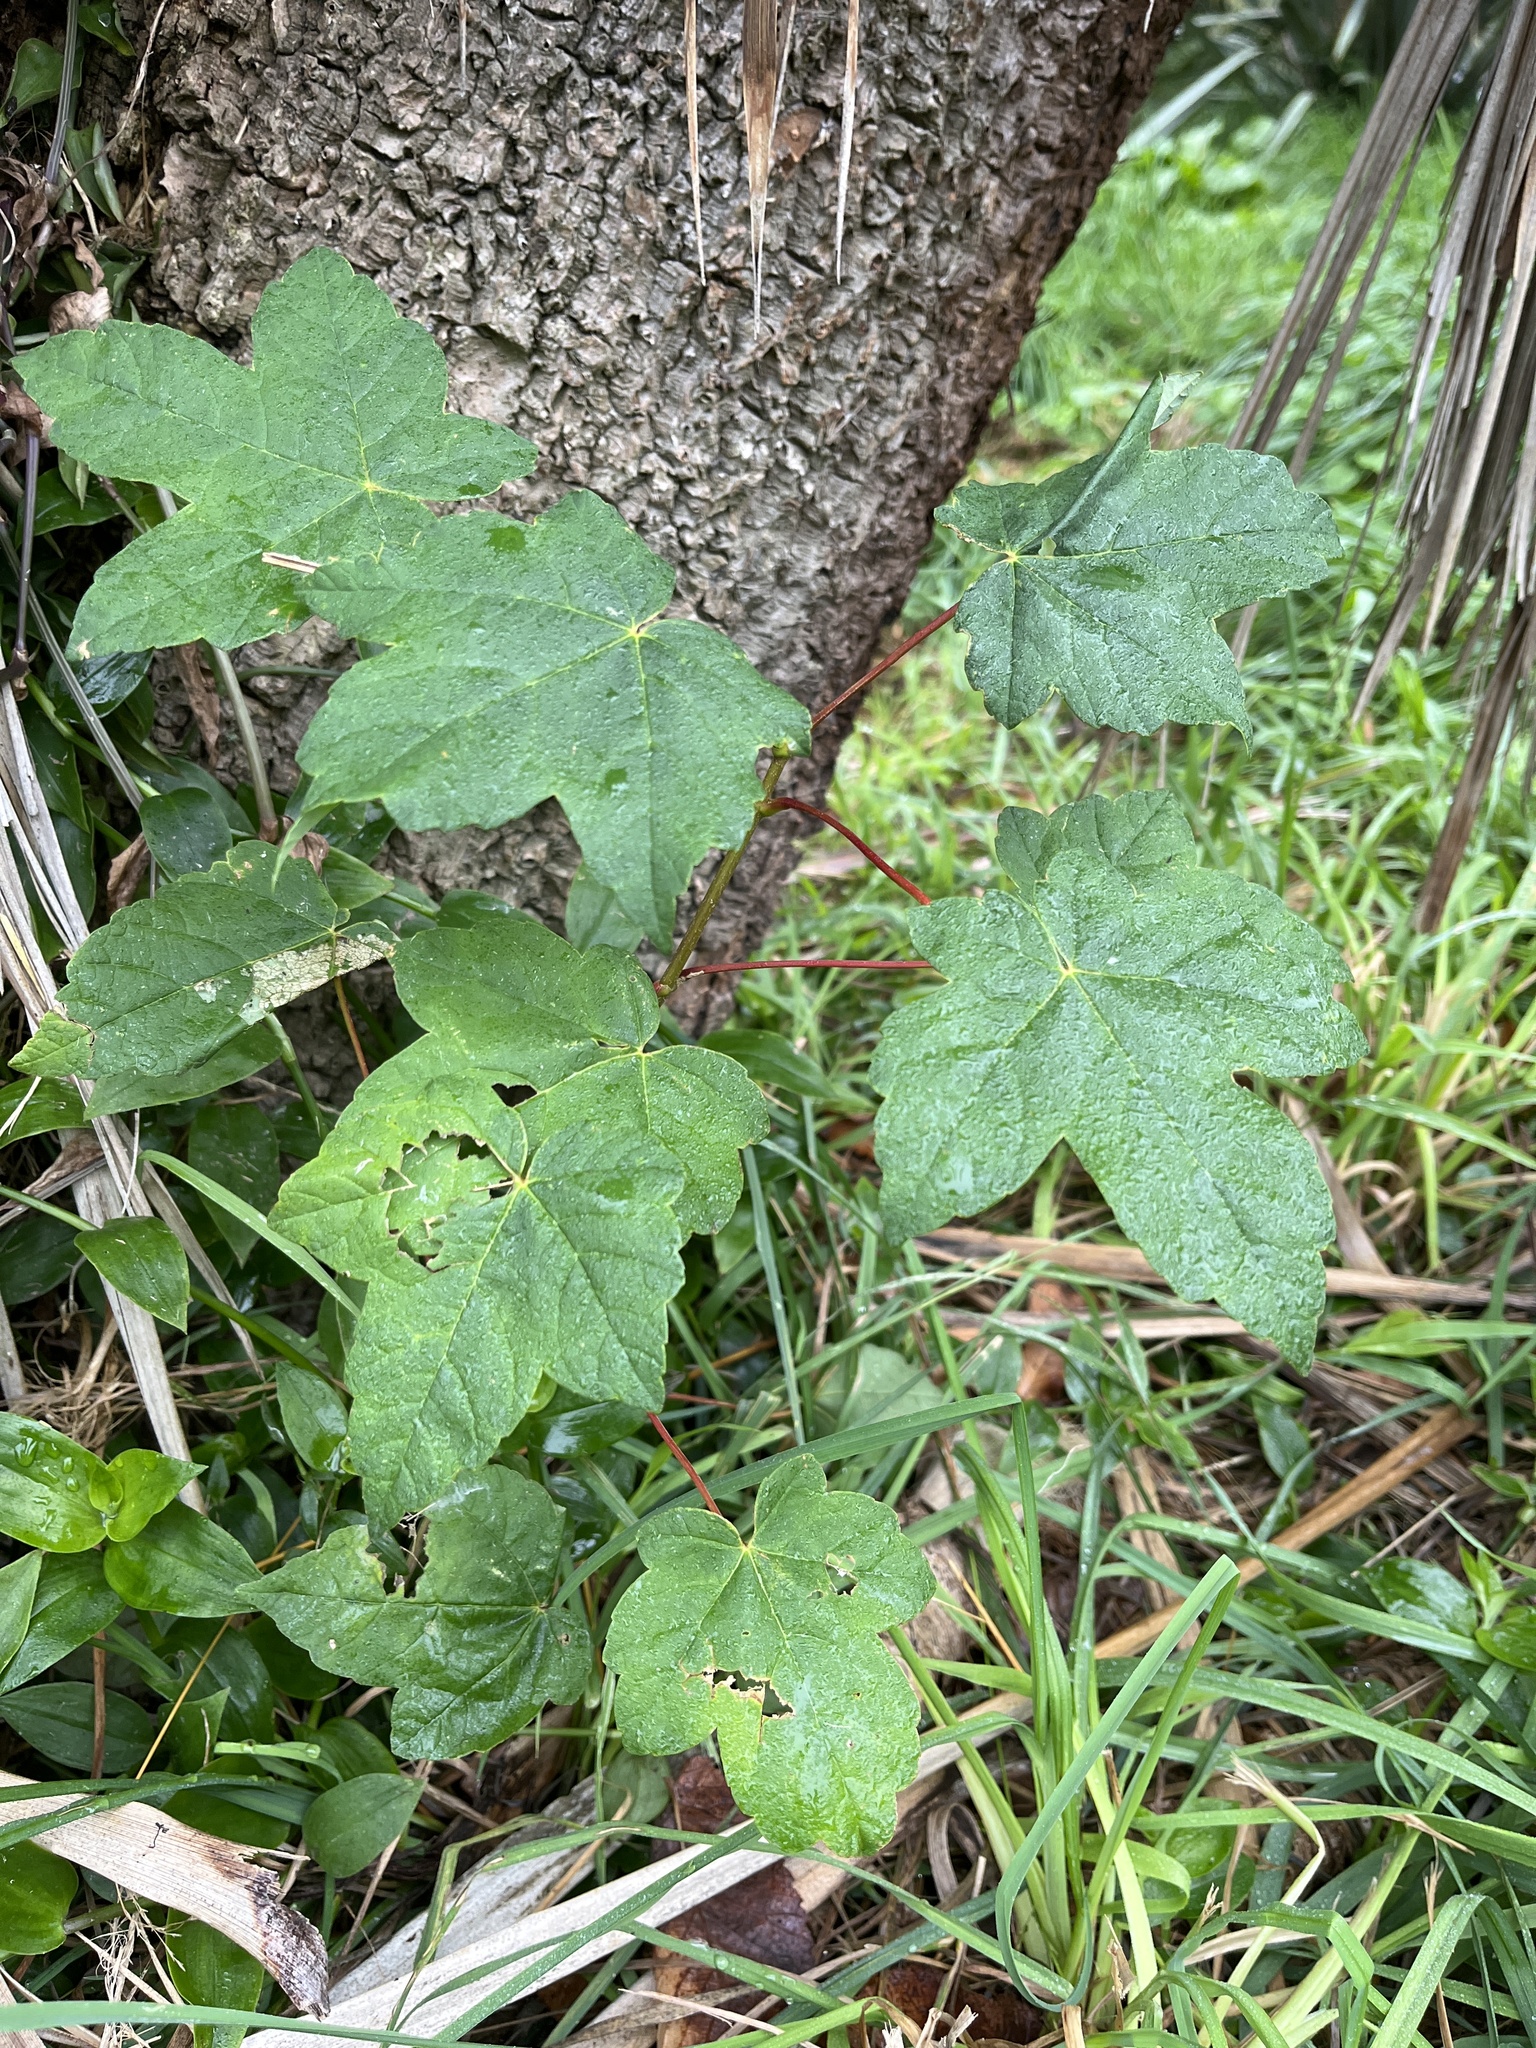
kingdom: Plantae
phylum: Tracheophyta
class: Magnoliopsida
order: Sapindales
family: Sapindaceae
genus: Acer
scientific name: Acer pseudoplatanus
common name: Sycamore
